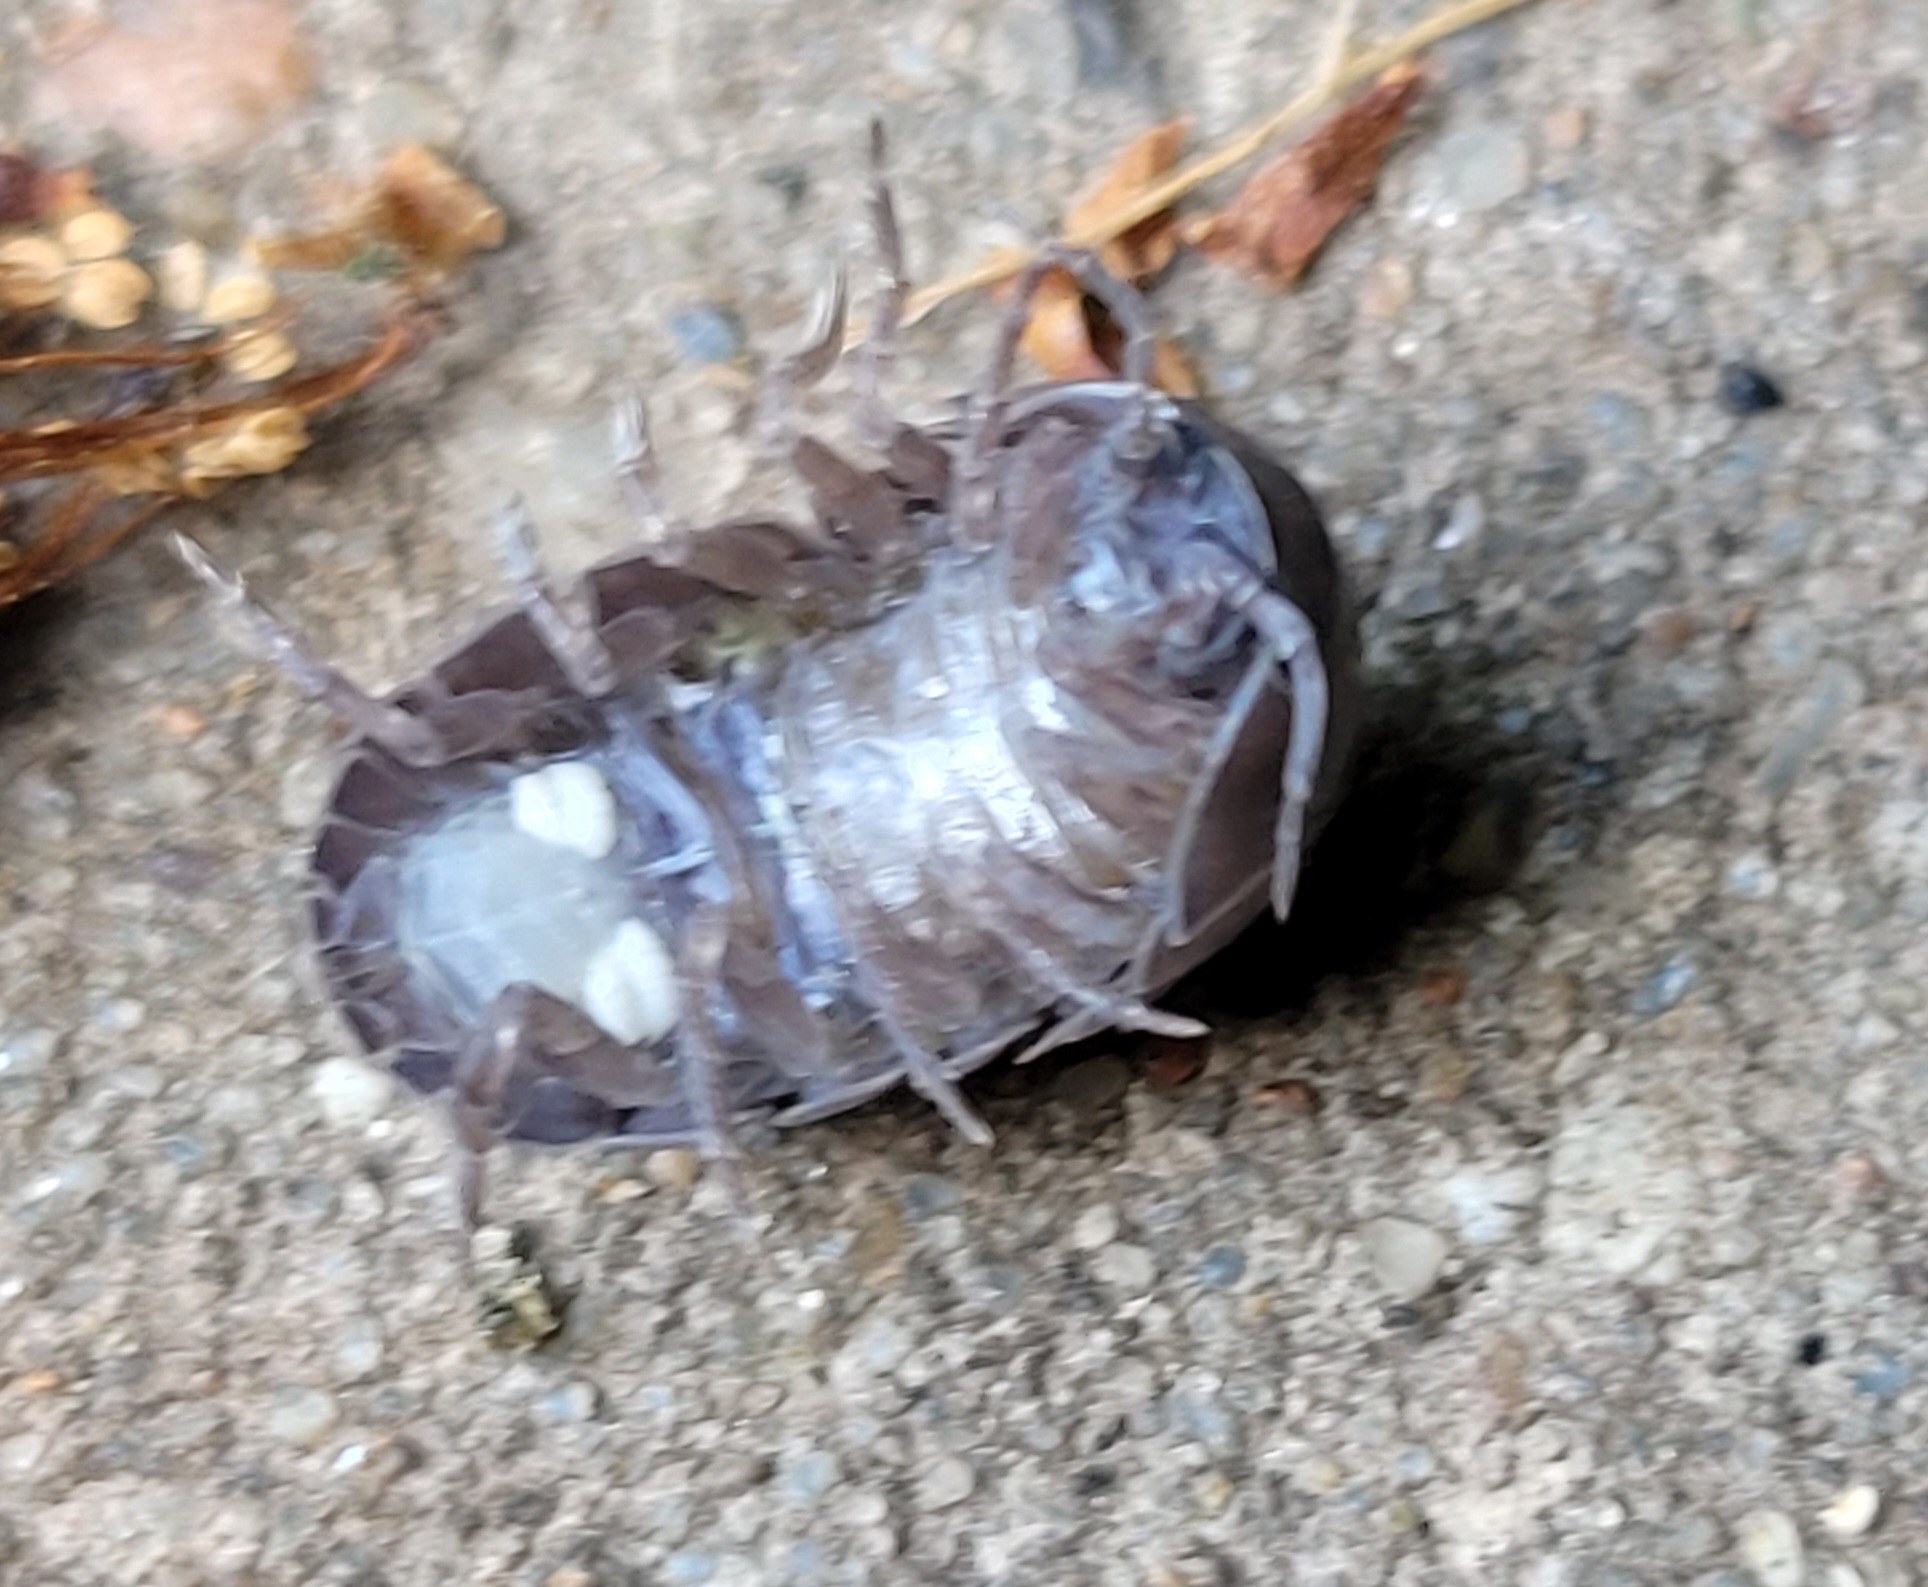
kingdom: Animalia
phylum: Arthropoda
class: Malacostraca
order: Isopoda
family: Armadillidiidae
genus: Armadillidium
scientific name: Armadillidium vulgare
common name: Common pill woodlouse
